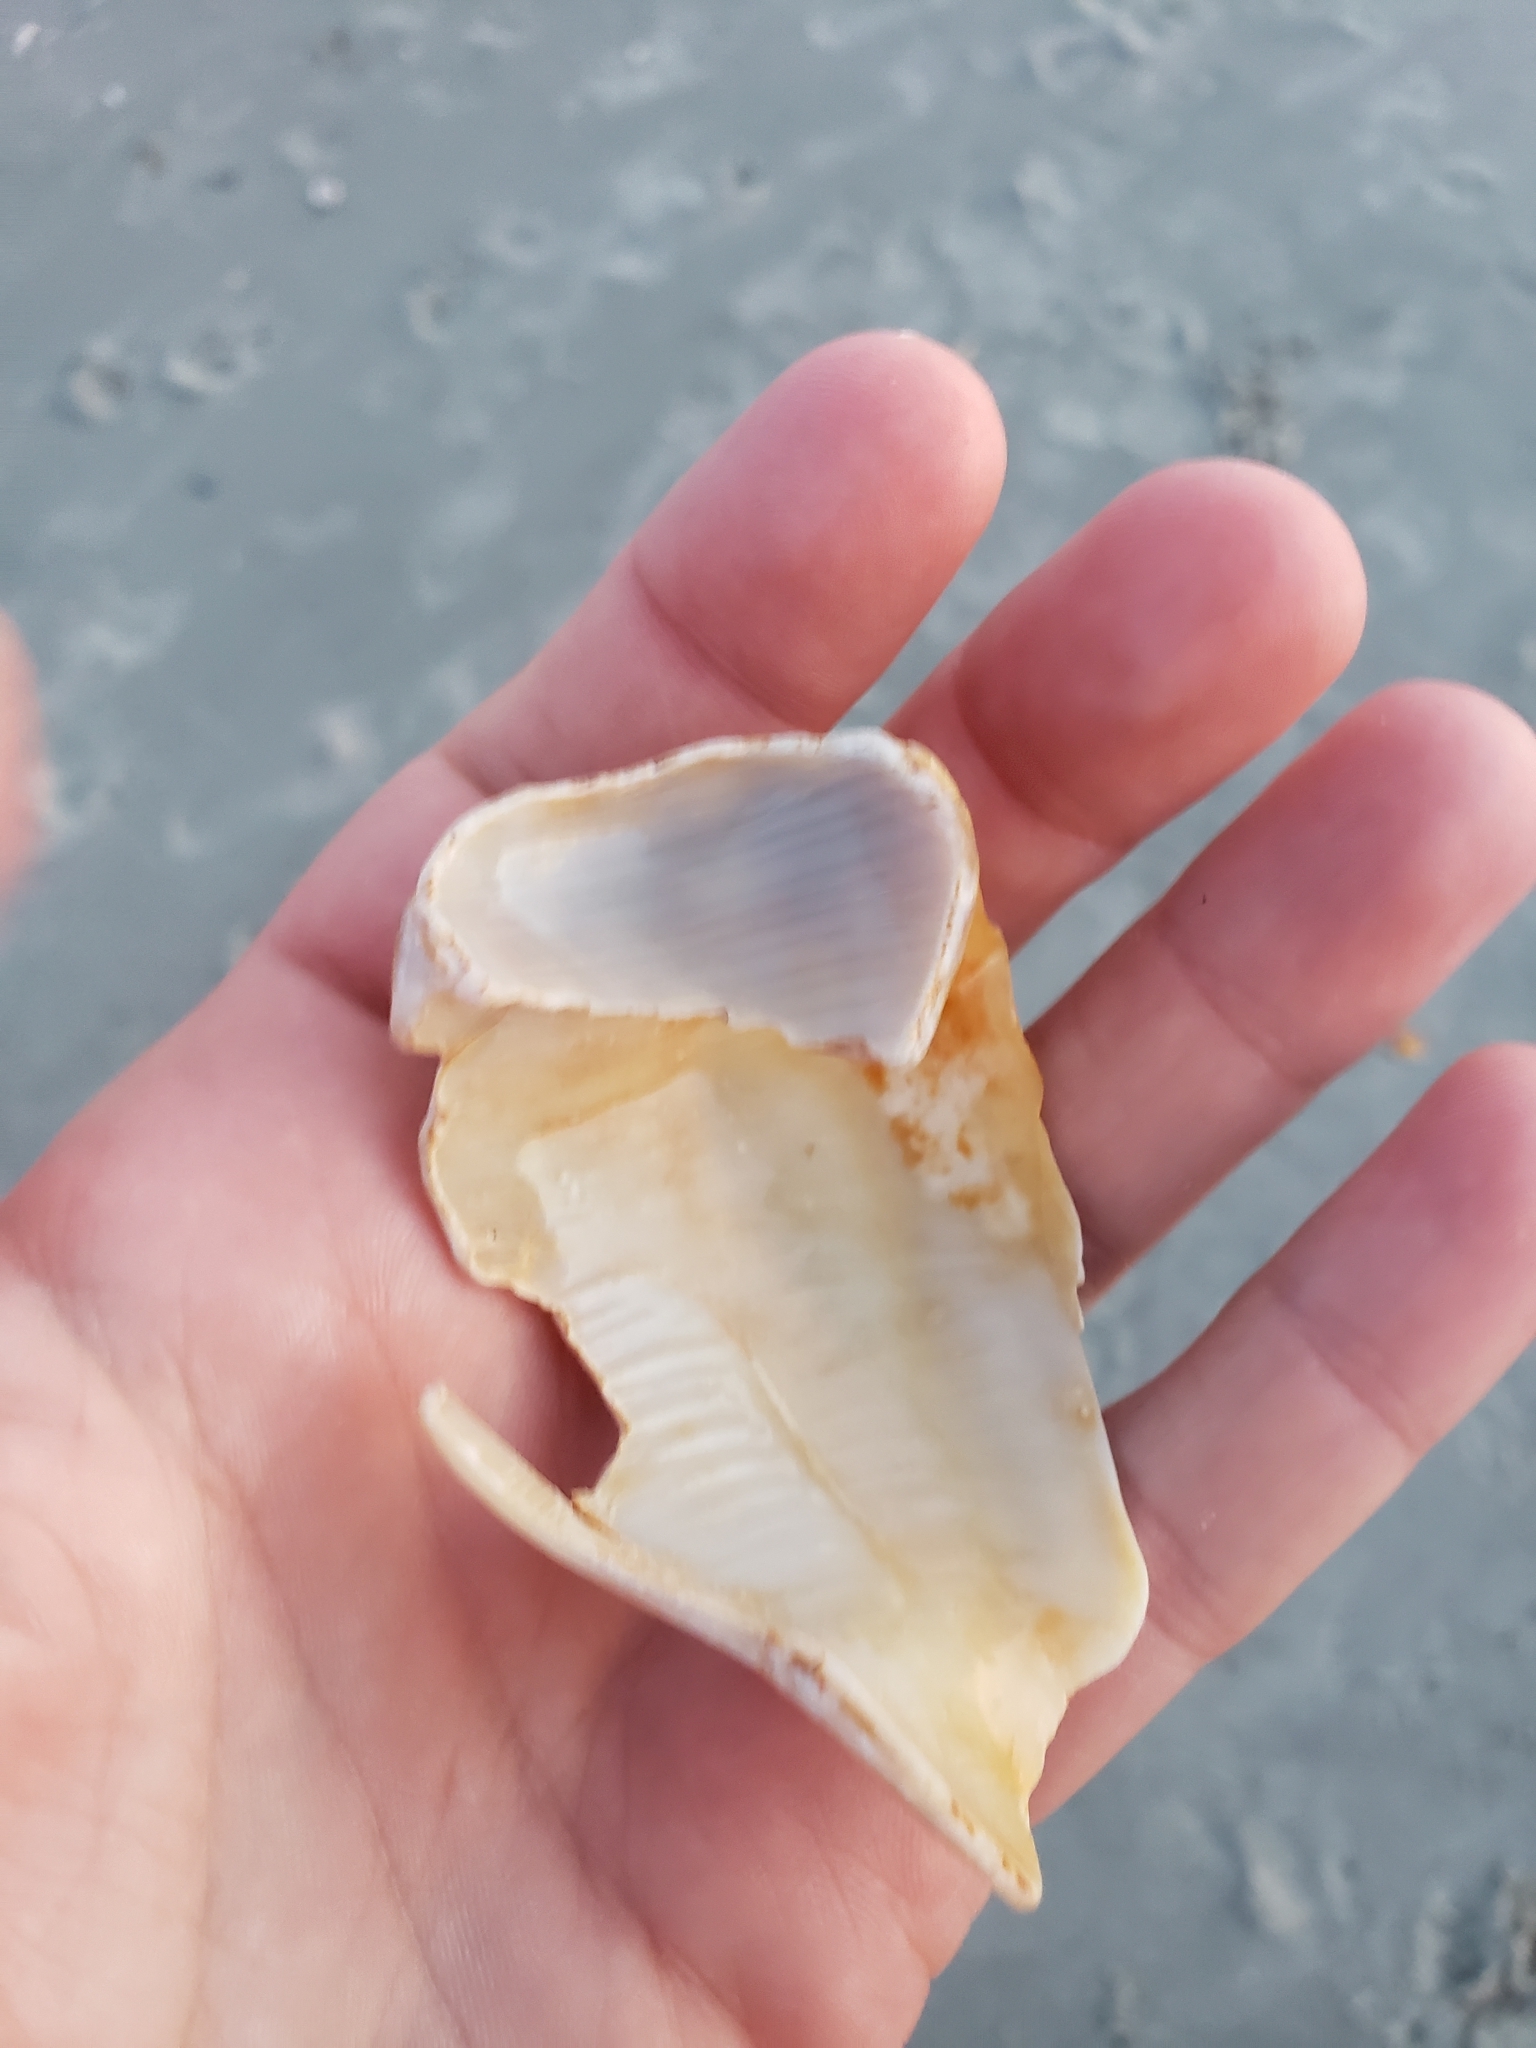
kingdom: Animalia
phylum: Mollusca
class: Gastropoda
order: Littorinimorpha
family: Strombidae
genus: Strombus
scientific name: Strombus alatus
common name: Florida fighting conch
